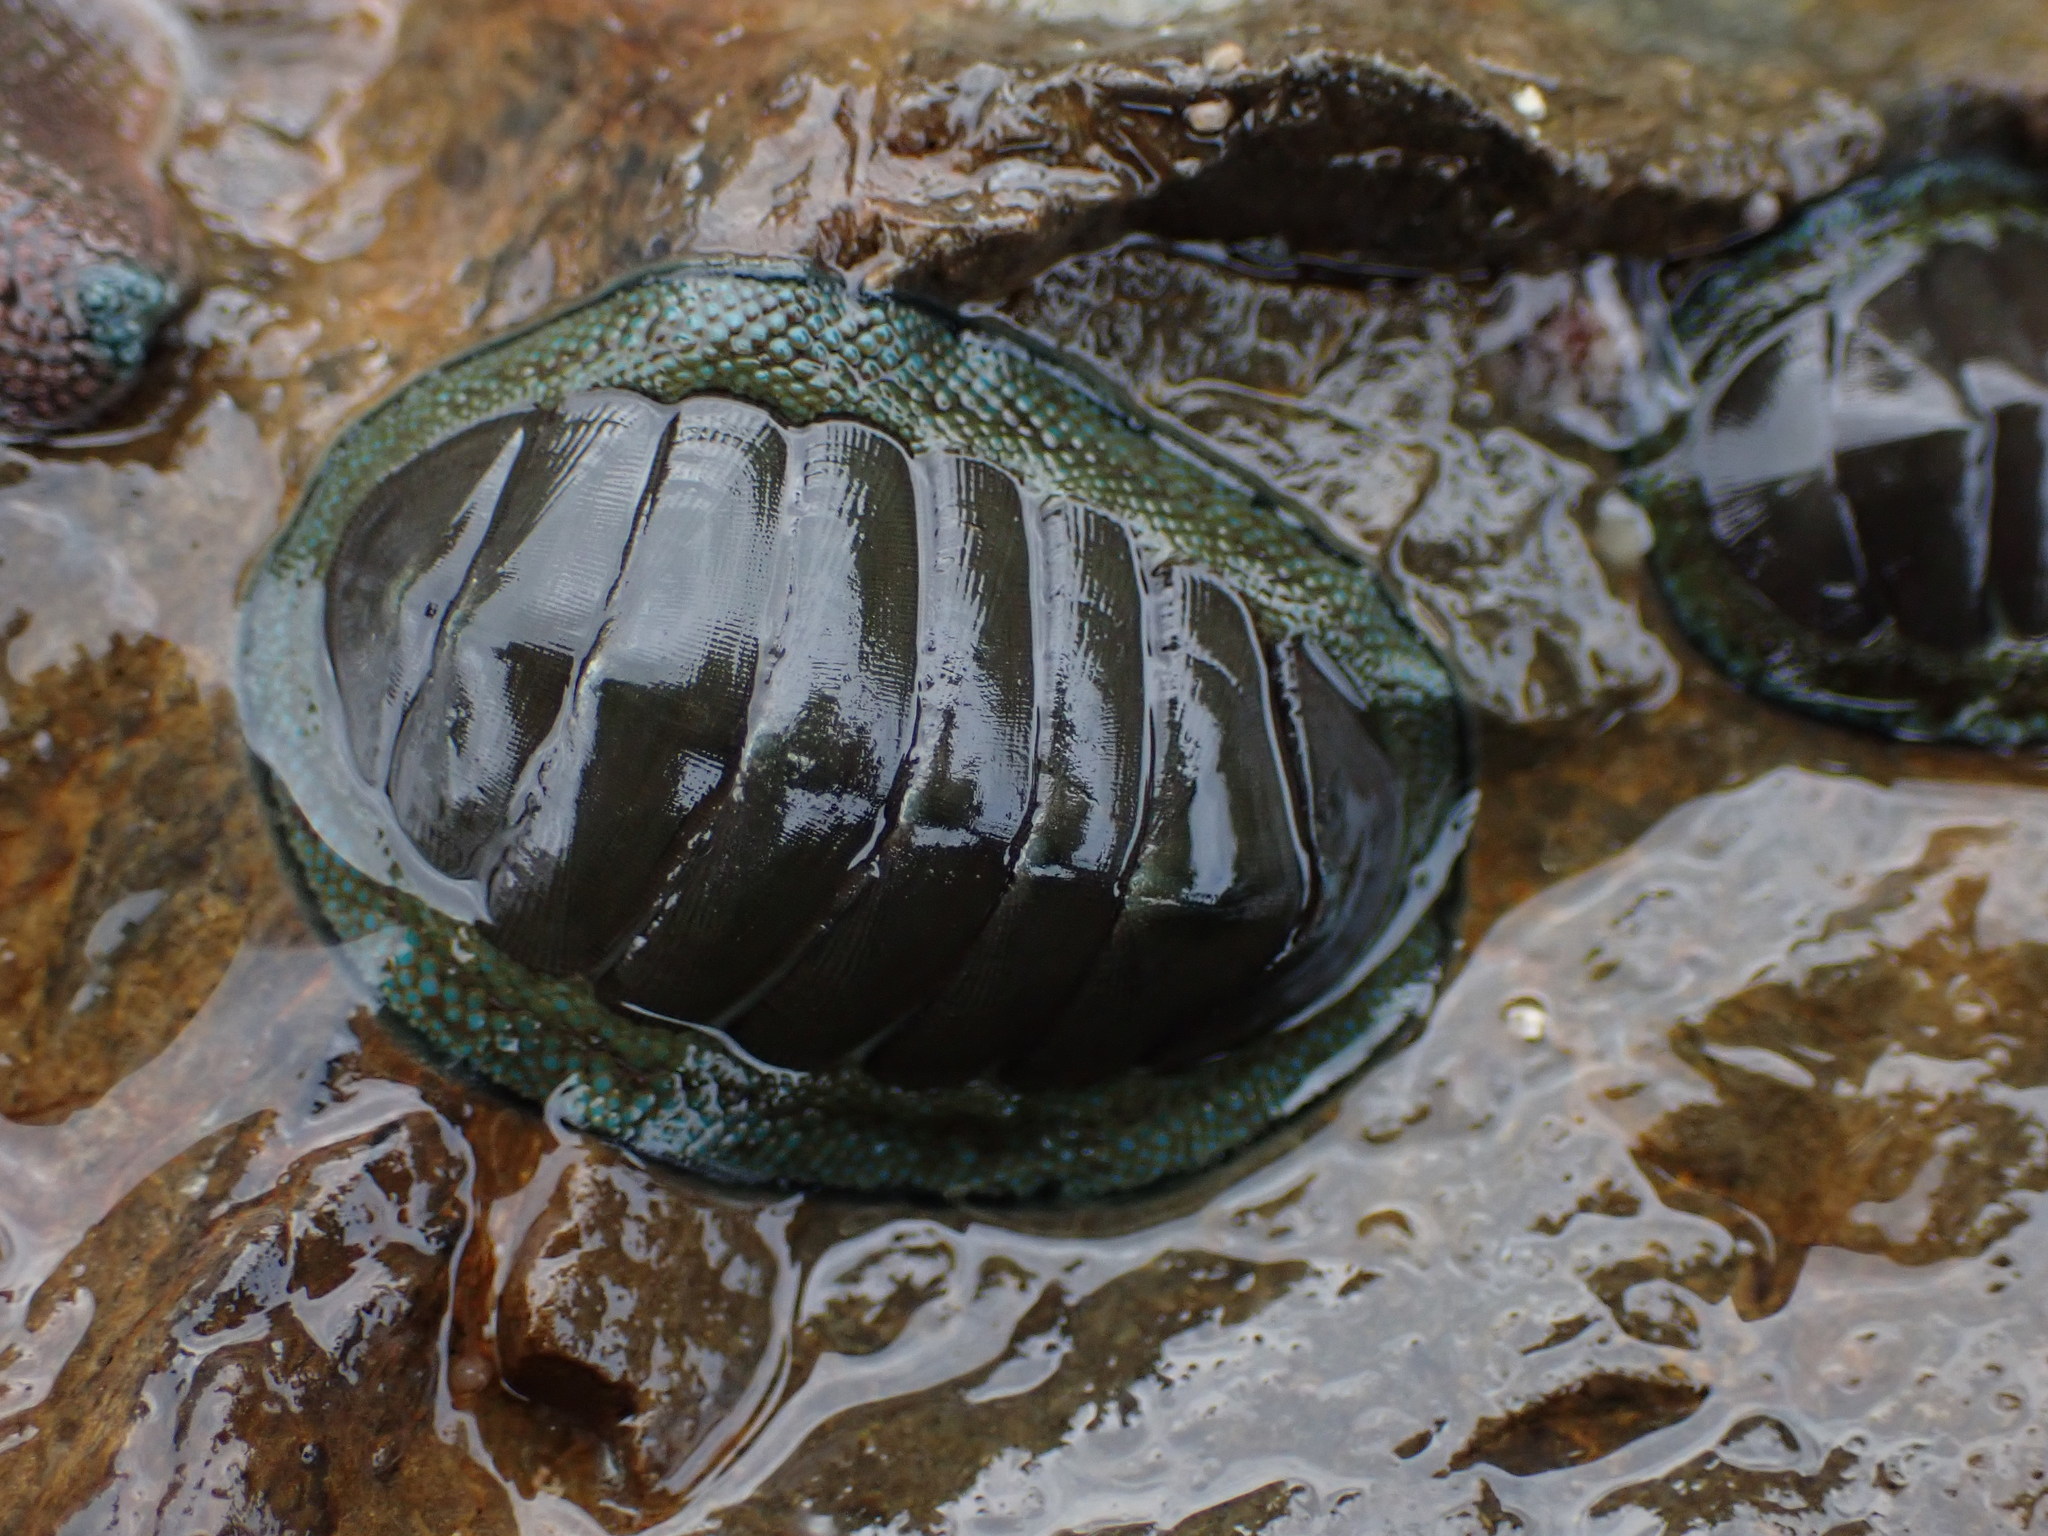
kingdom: Animalia
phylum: Mollusca
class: Polyplacophora
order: Chitonida
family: Chitonidae
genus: Chiton
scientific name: Chiton glaucus
